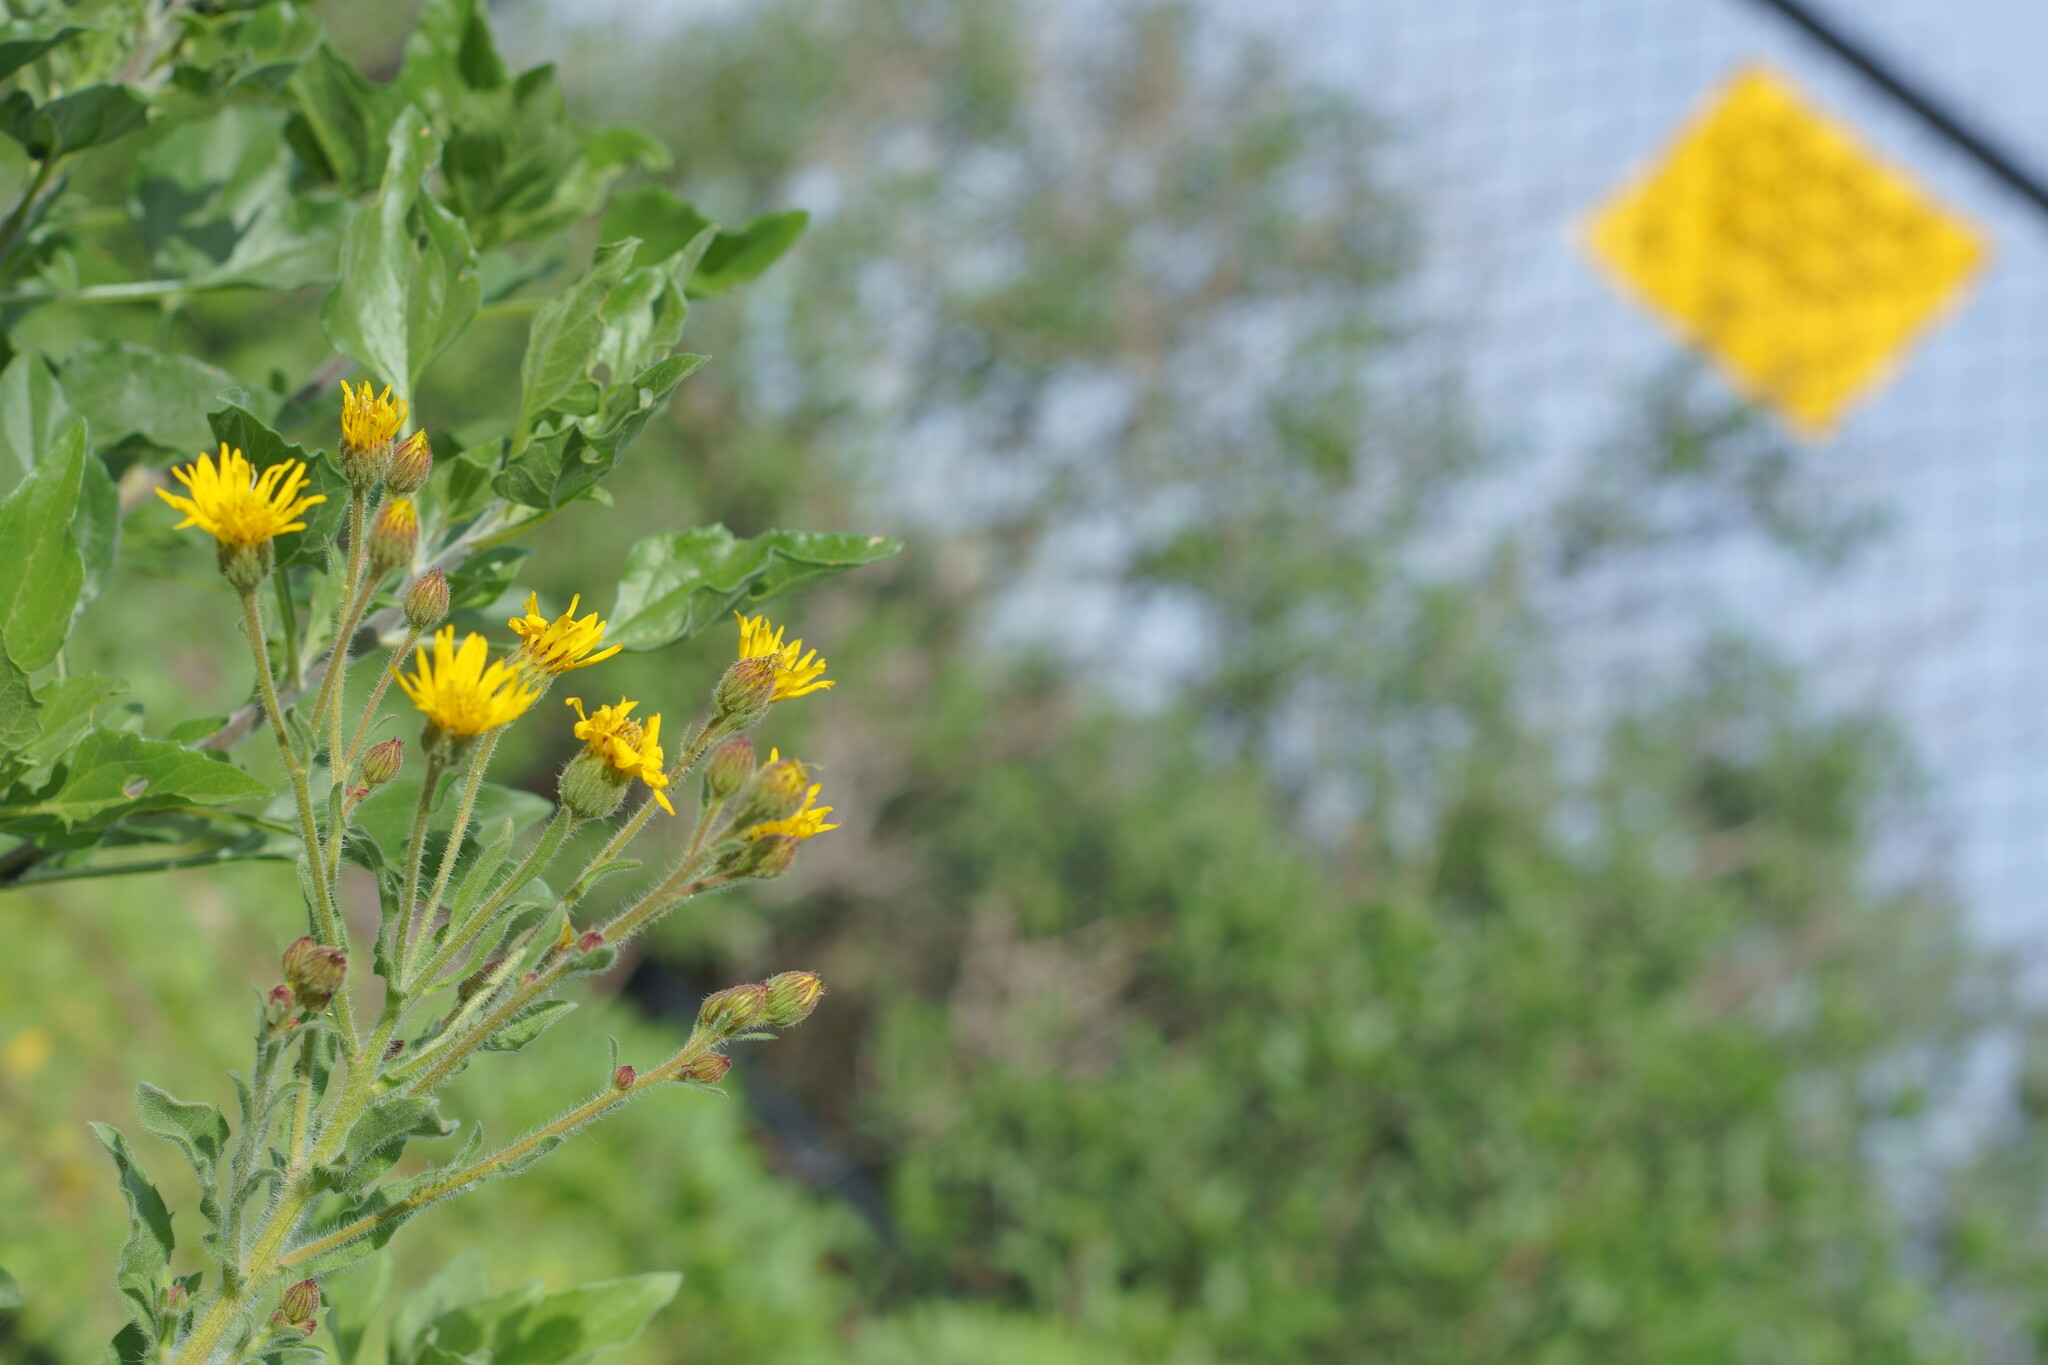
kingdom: Plantae
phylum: Tracheophyta
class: Magnoliopsida
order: Asterales
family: Asteraceae
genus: Heterotheca
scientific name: Heterotheca grandiflora
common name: Telegraphweed
